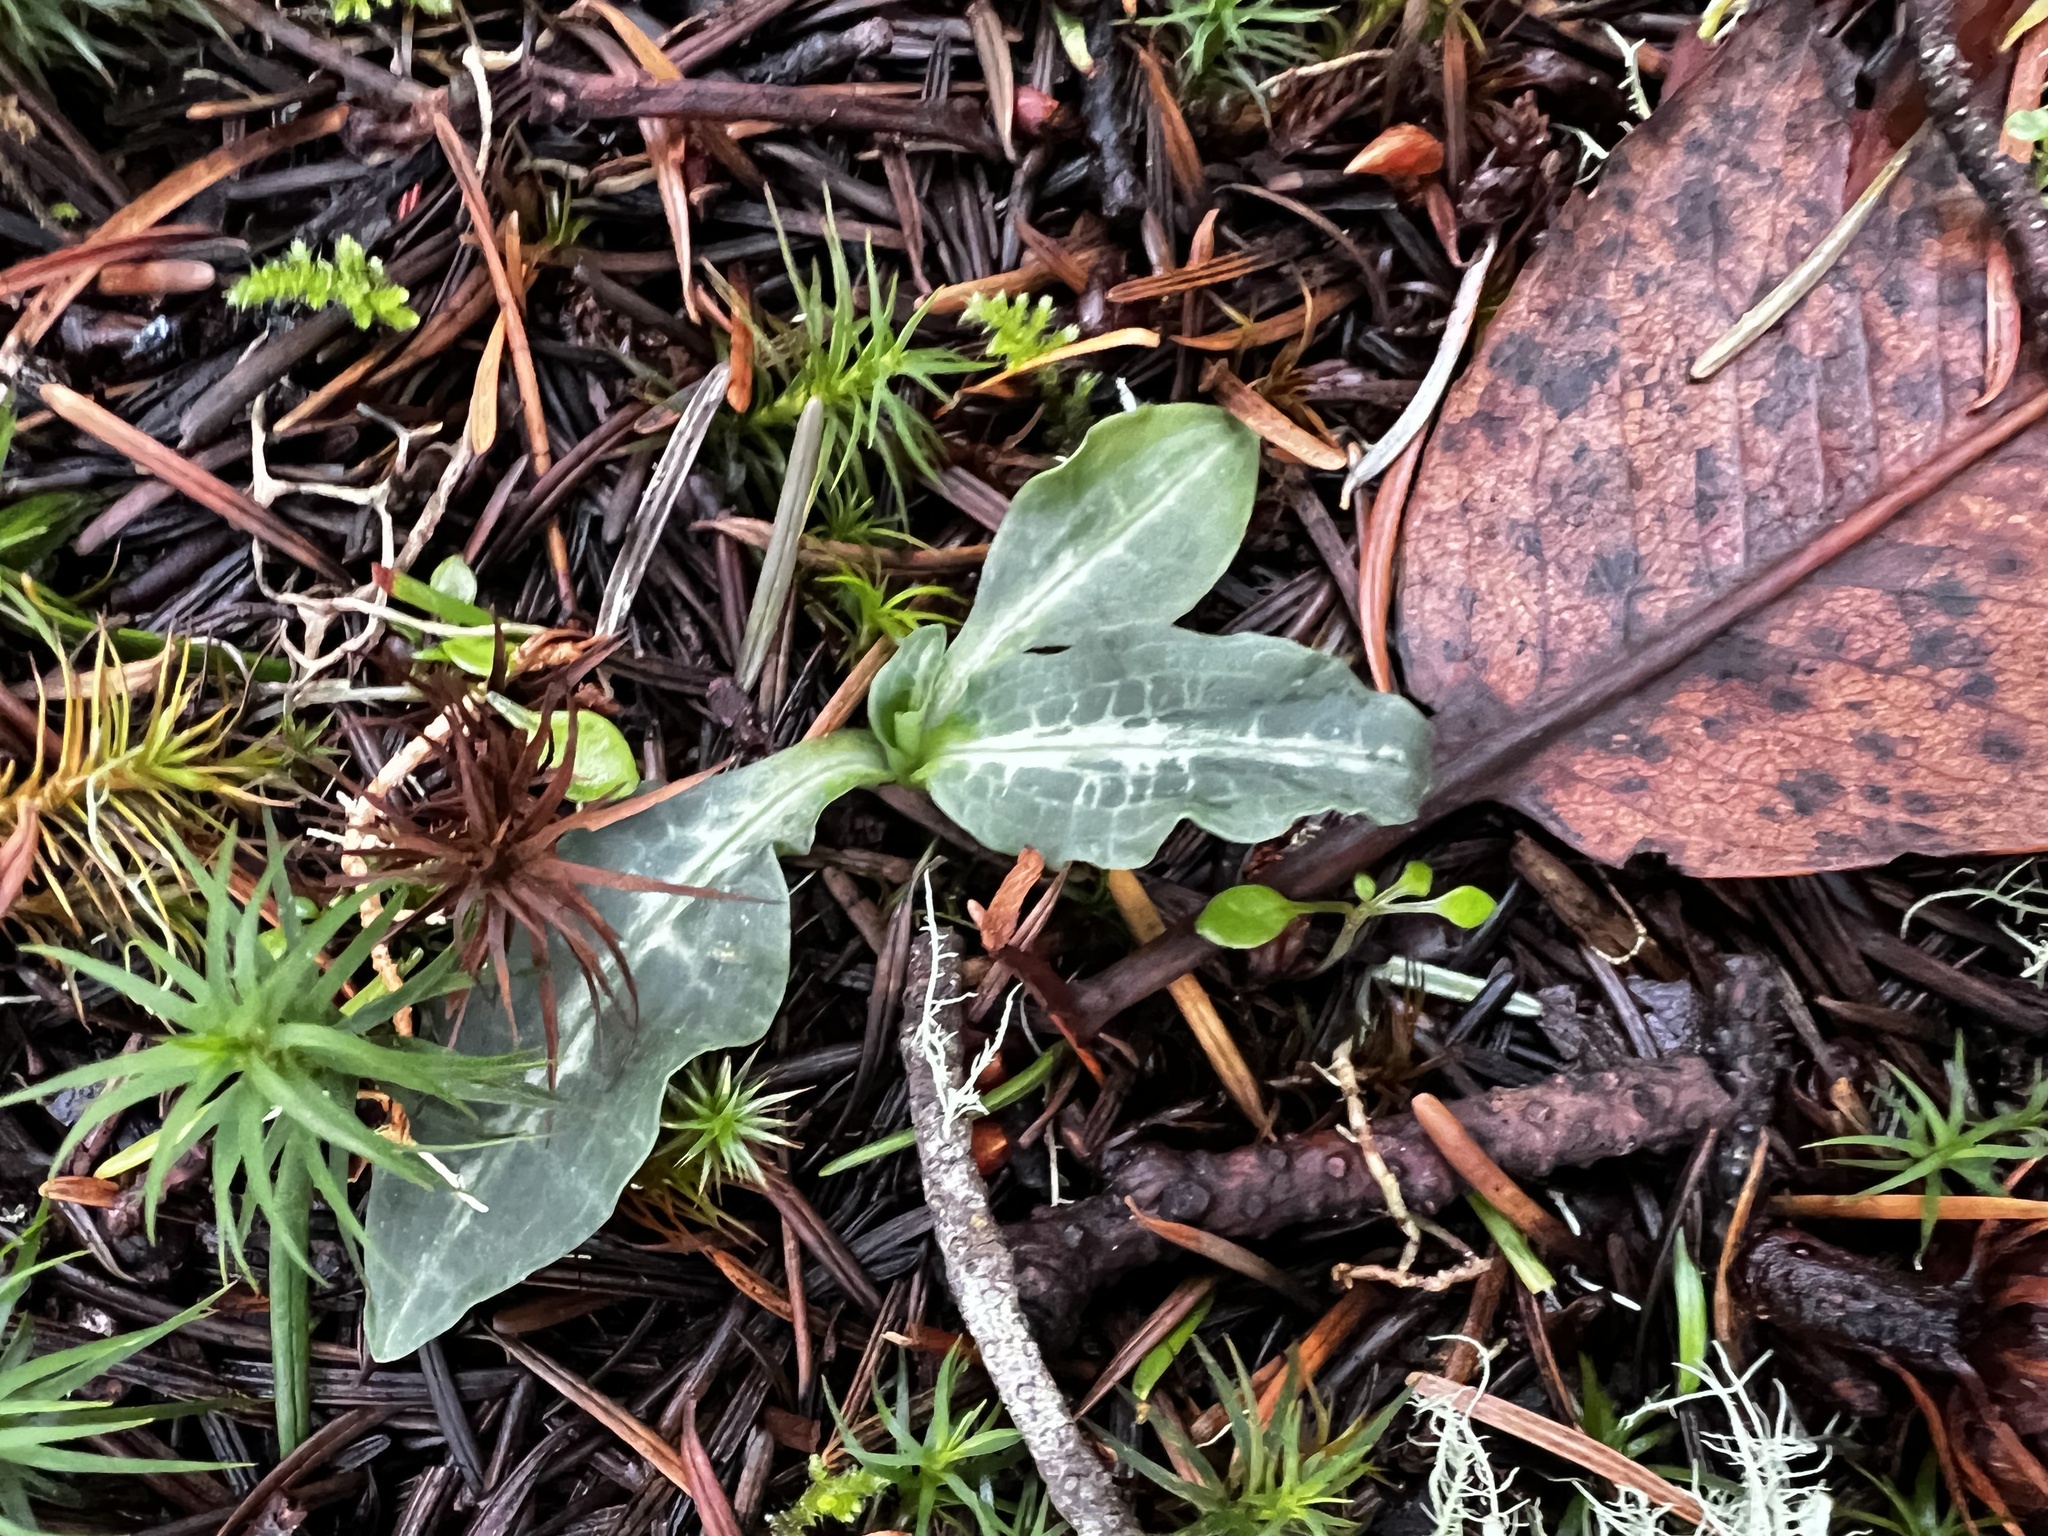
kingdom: Plantae
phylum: Tracheophyta
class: Liliopsida
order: Asparagales
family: Orchidaceae
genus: Goodyera
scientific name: Goodyera oblongifolia
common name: Giant rattlesnake-plantain
